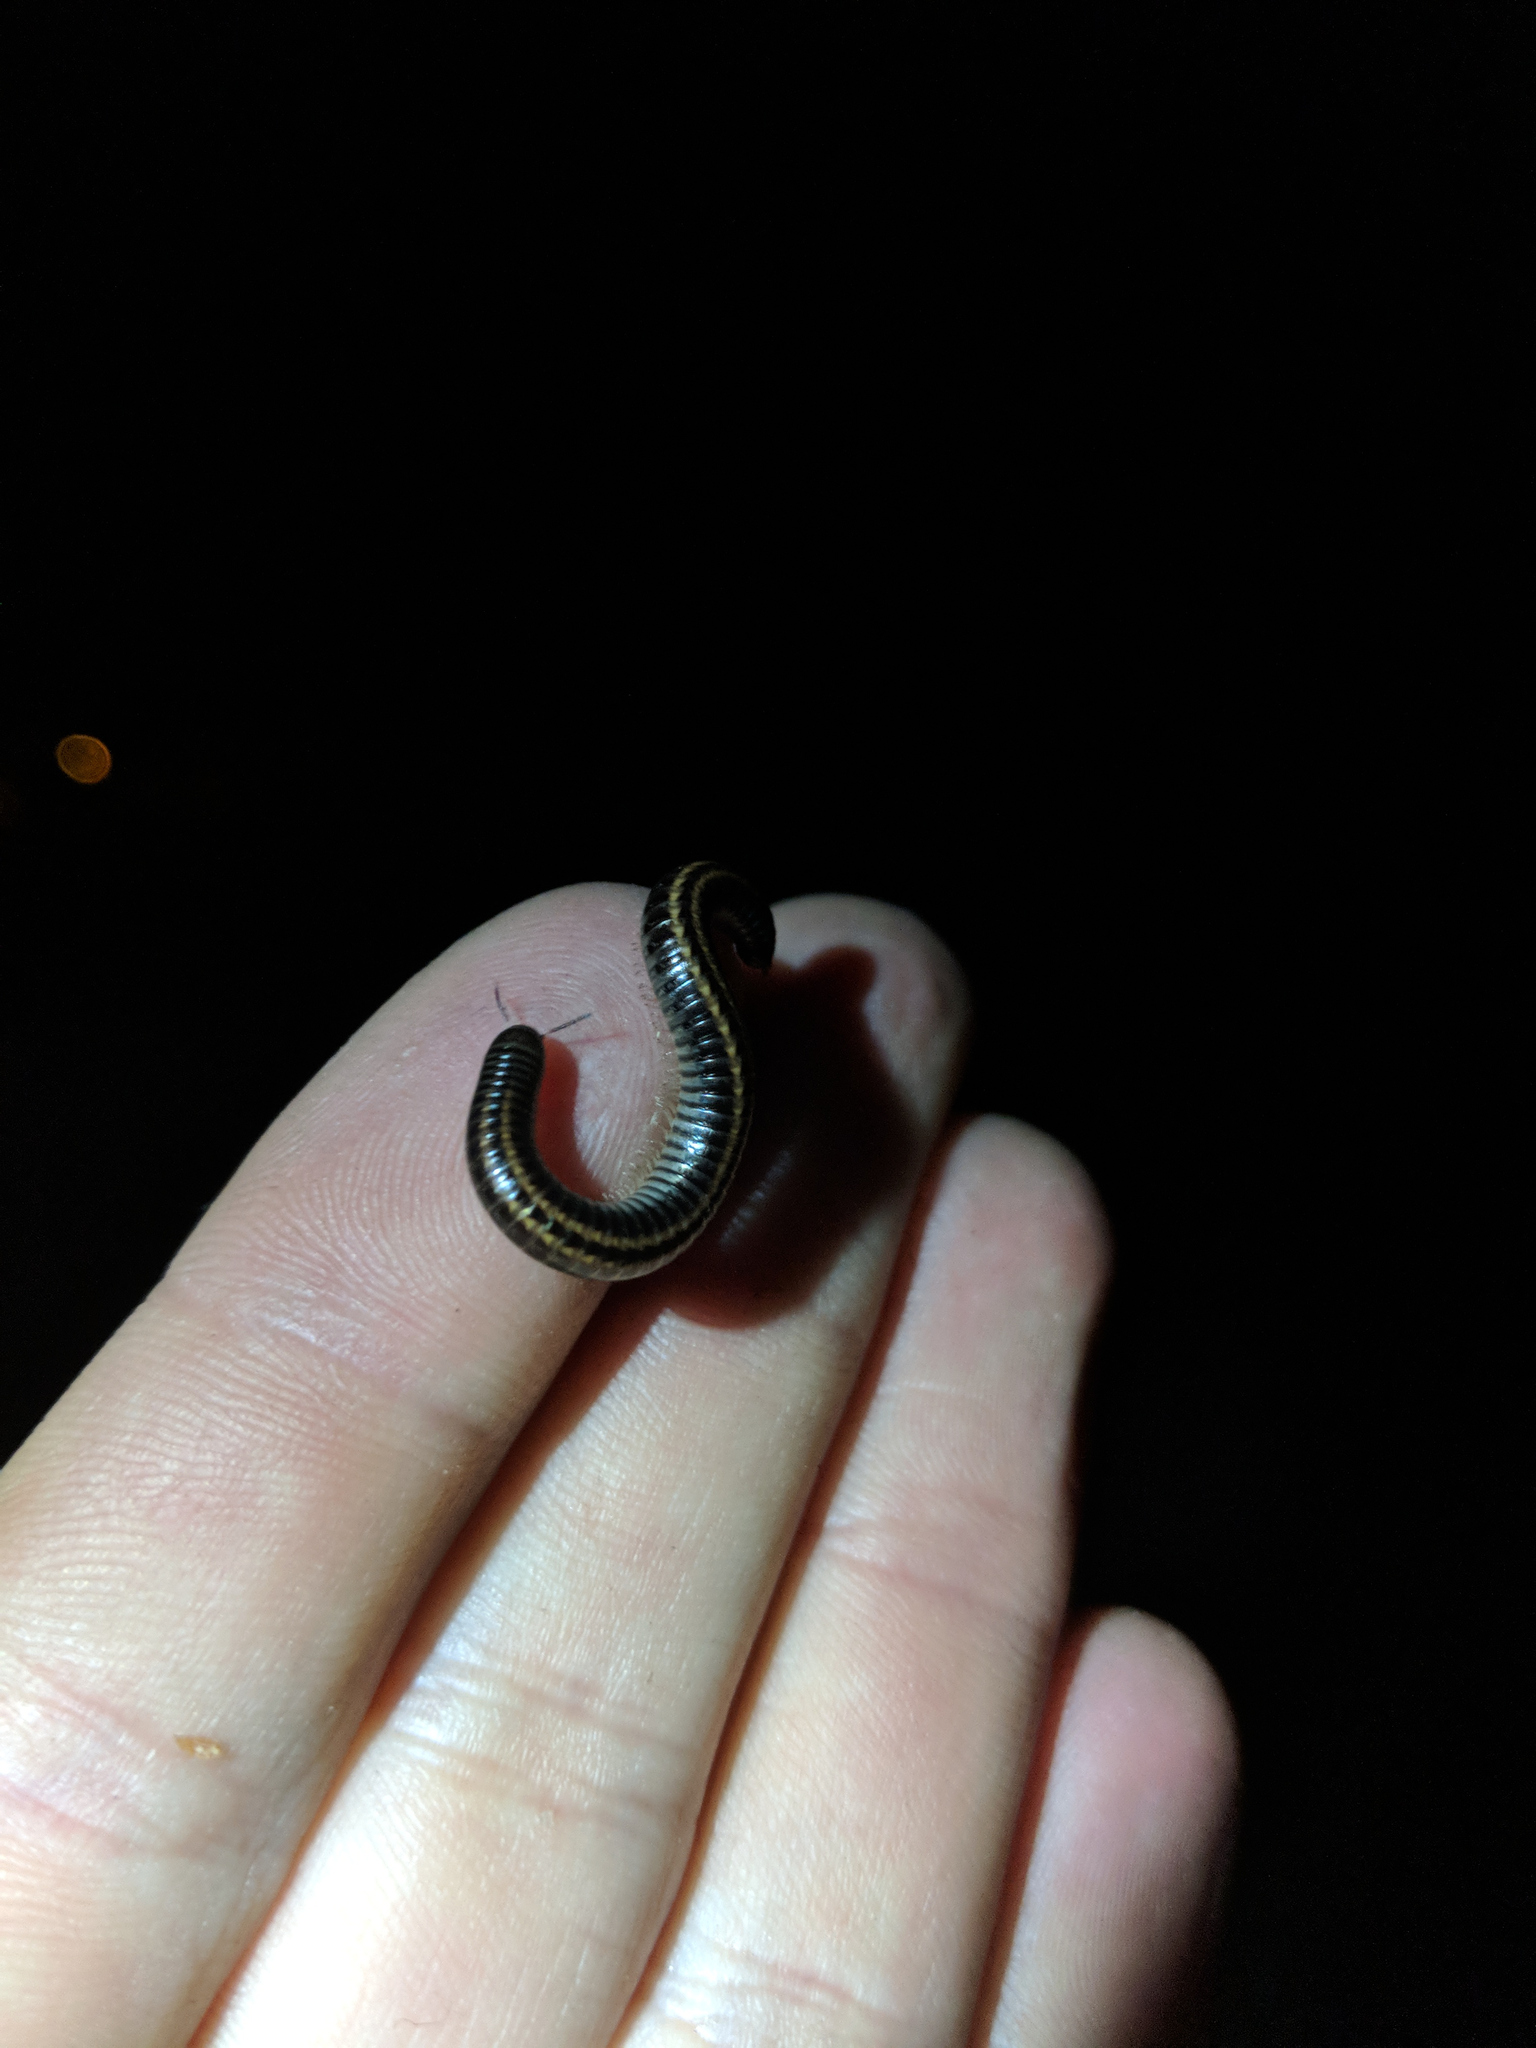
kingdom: Animalia
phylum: Arthropoda
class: Diplopoda
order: Julida
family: Julidae
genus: Ommatoiulus
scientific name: Ommatoiulus sabulosus
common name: Striped millipede
